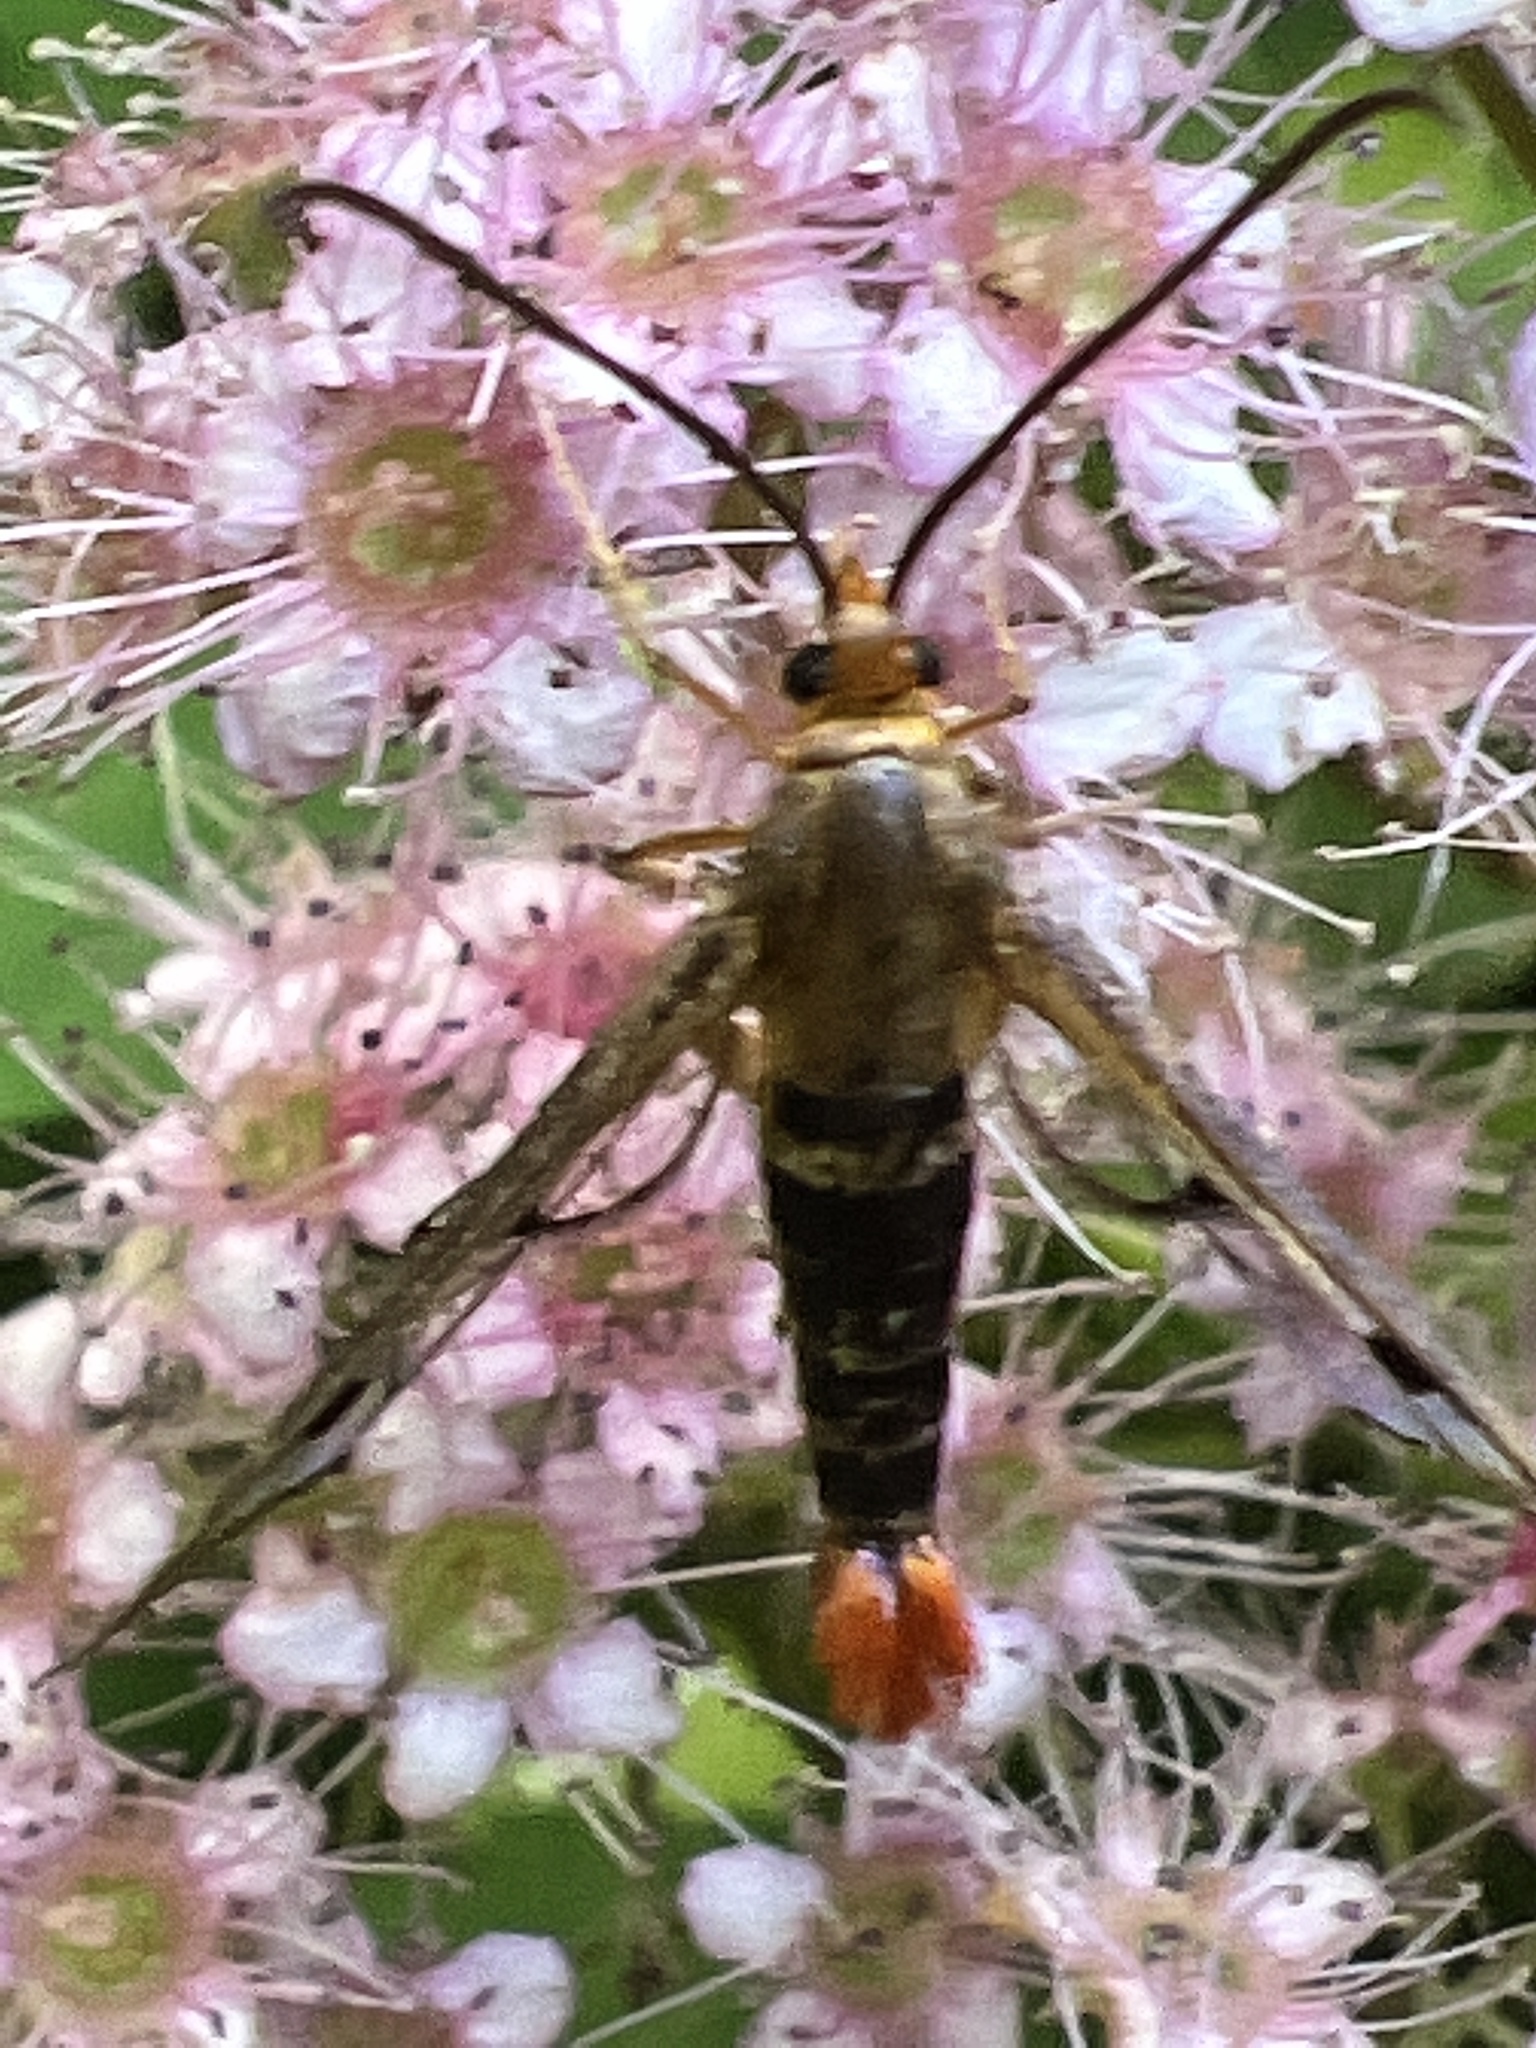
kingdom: Animalia
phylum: Arthropoda
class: Insecta
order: Lepidoptera
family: Sesiidae
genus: Synanthedon
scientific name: Synanthedon acerni
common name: Maple callus borer moth
